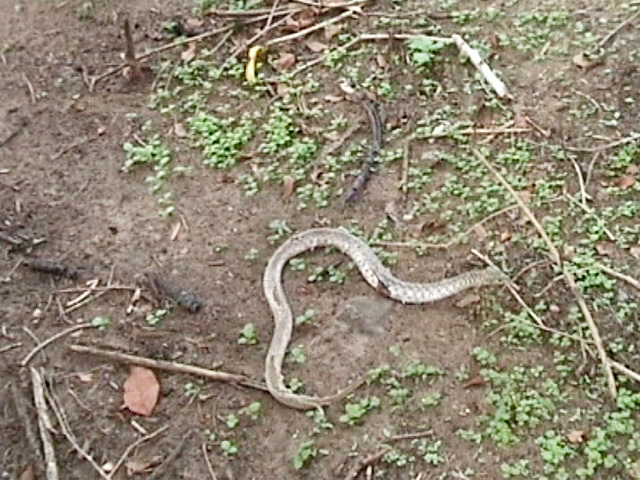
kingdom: Animalia
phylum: Chordata
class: Squamata
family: Colubridae
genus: Fowlea
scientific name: Fowlea piscator
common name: Asiatic water snake
